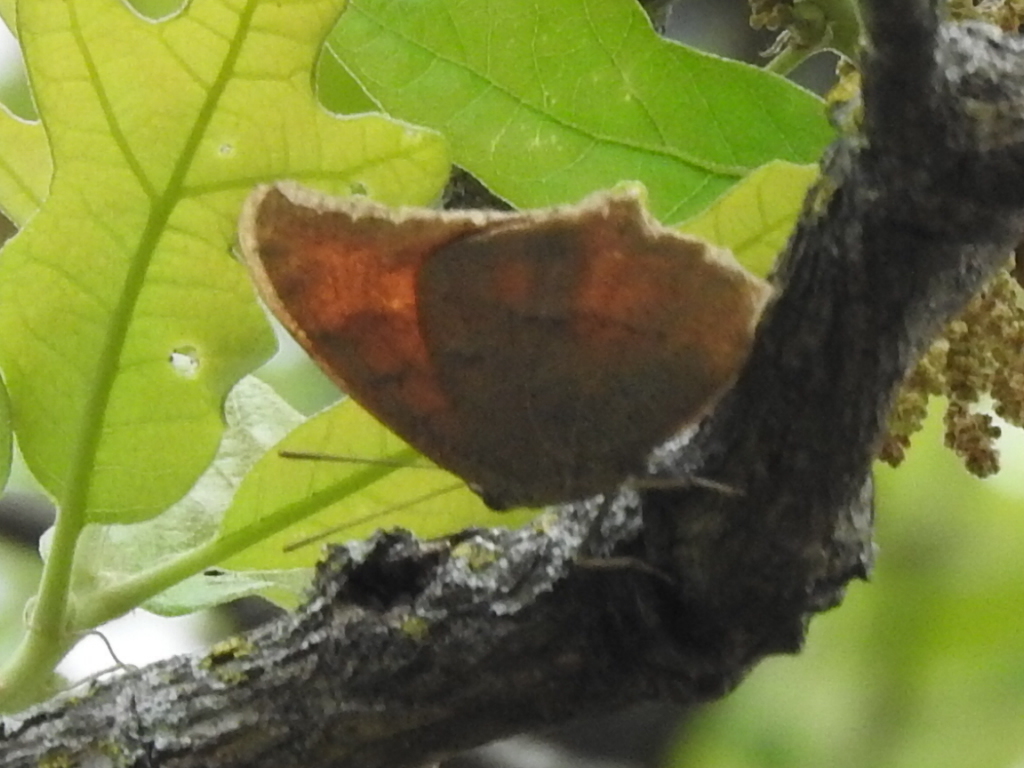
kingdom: Animalia
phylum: Arthropoda
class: Insecta
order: Lepidoptera
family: Nymphalidae
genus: Anaea
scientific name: Anaea andria
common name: Goatweed leafwing
